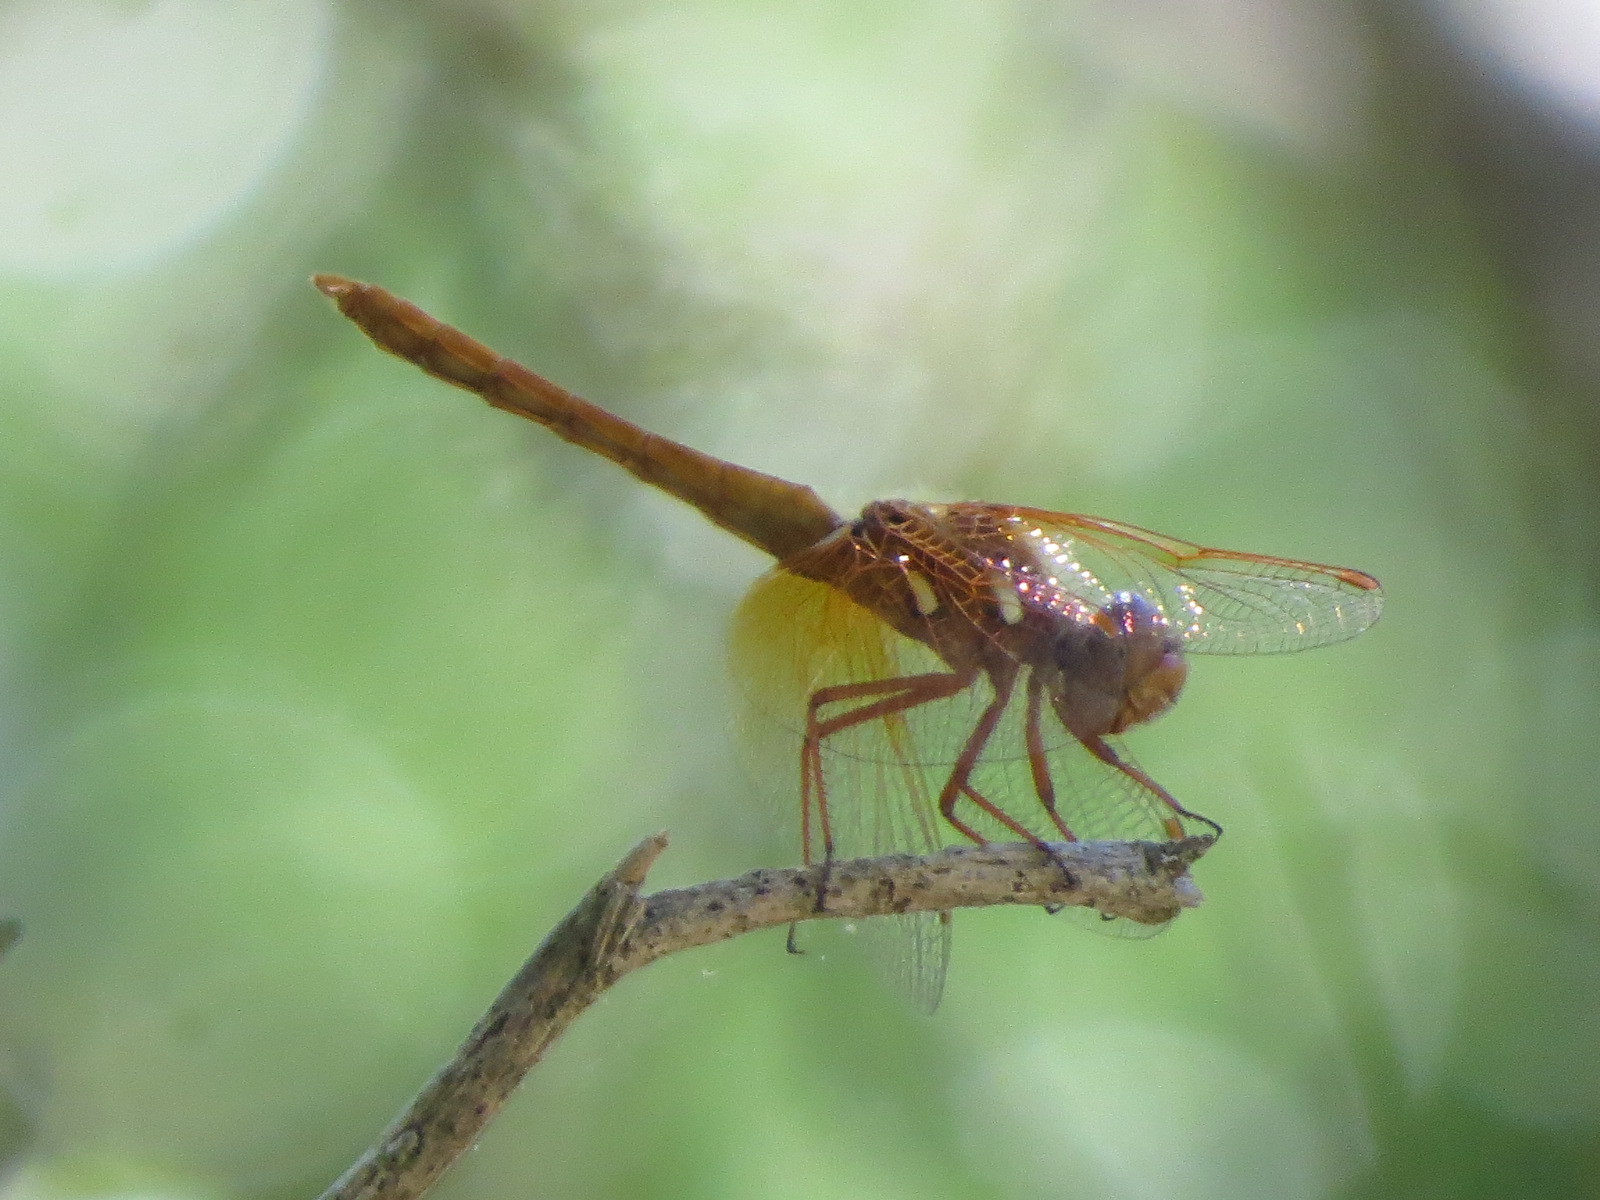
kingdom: Animalia
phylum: Arthropoda
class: Insecta
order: Odonata
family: Libellulidae
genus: Sympetrum
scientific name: Sympetrum illotum
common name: Cardinal meadowhawk
